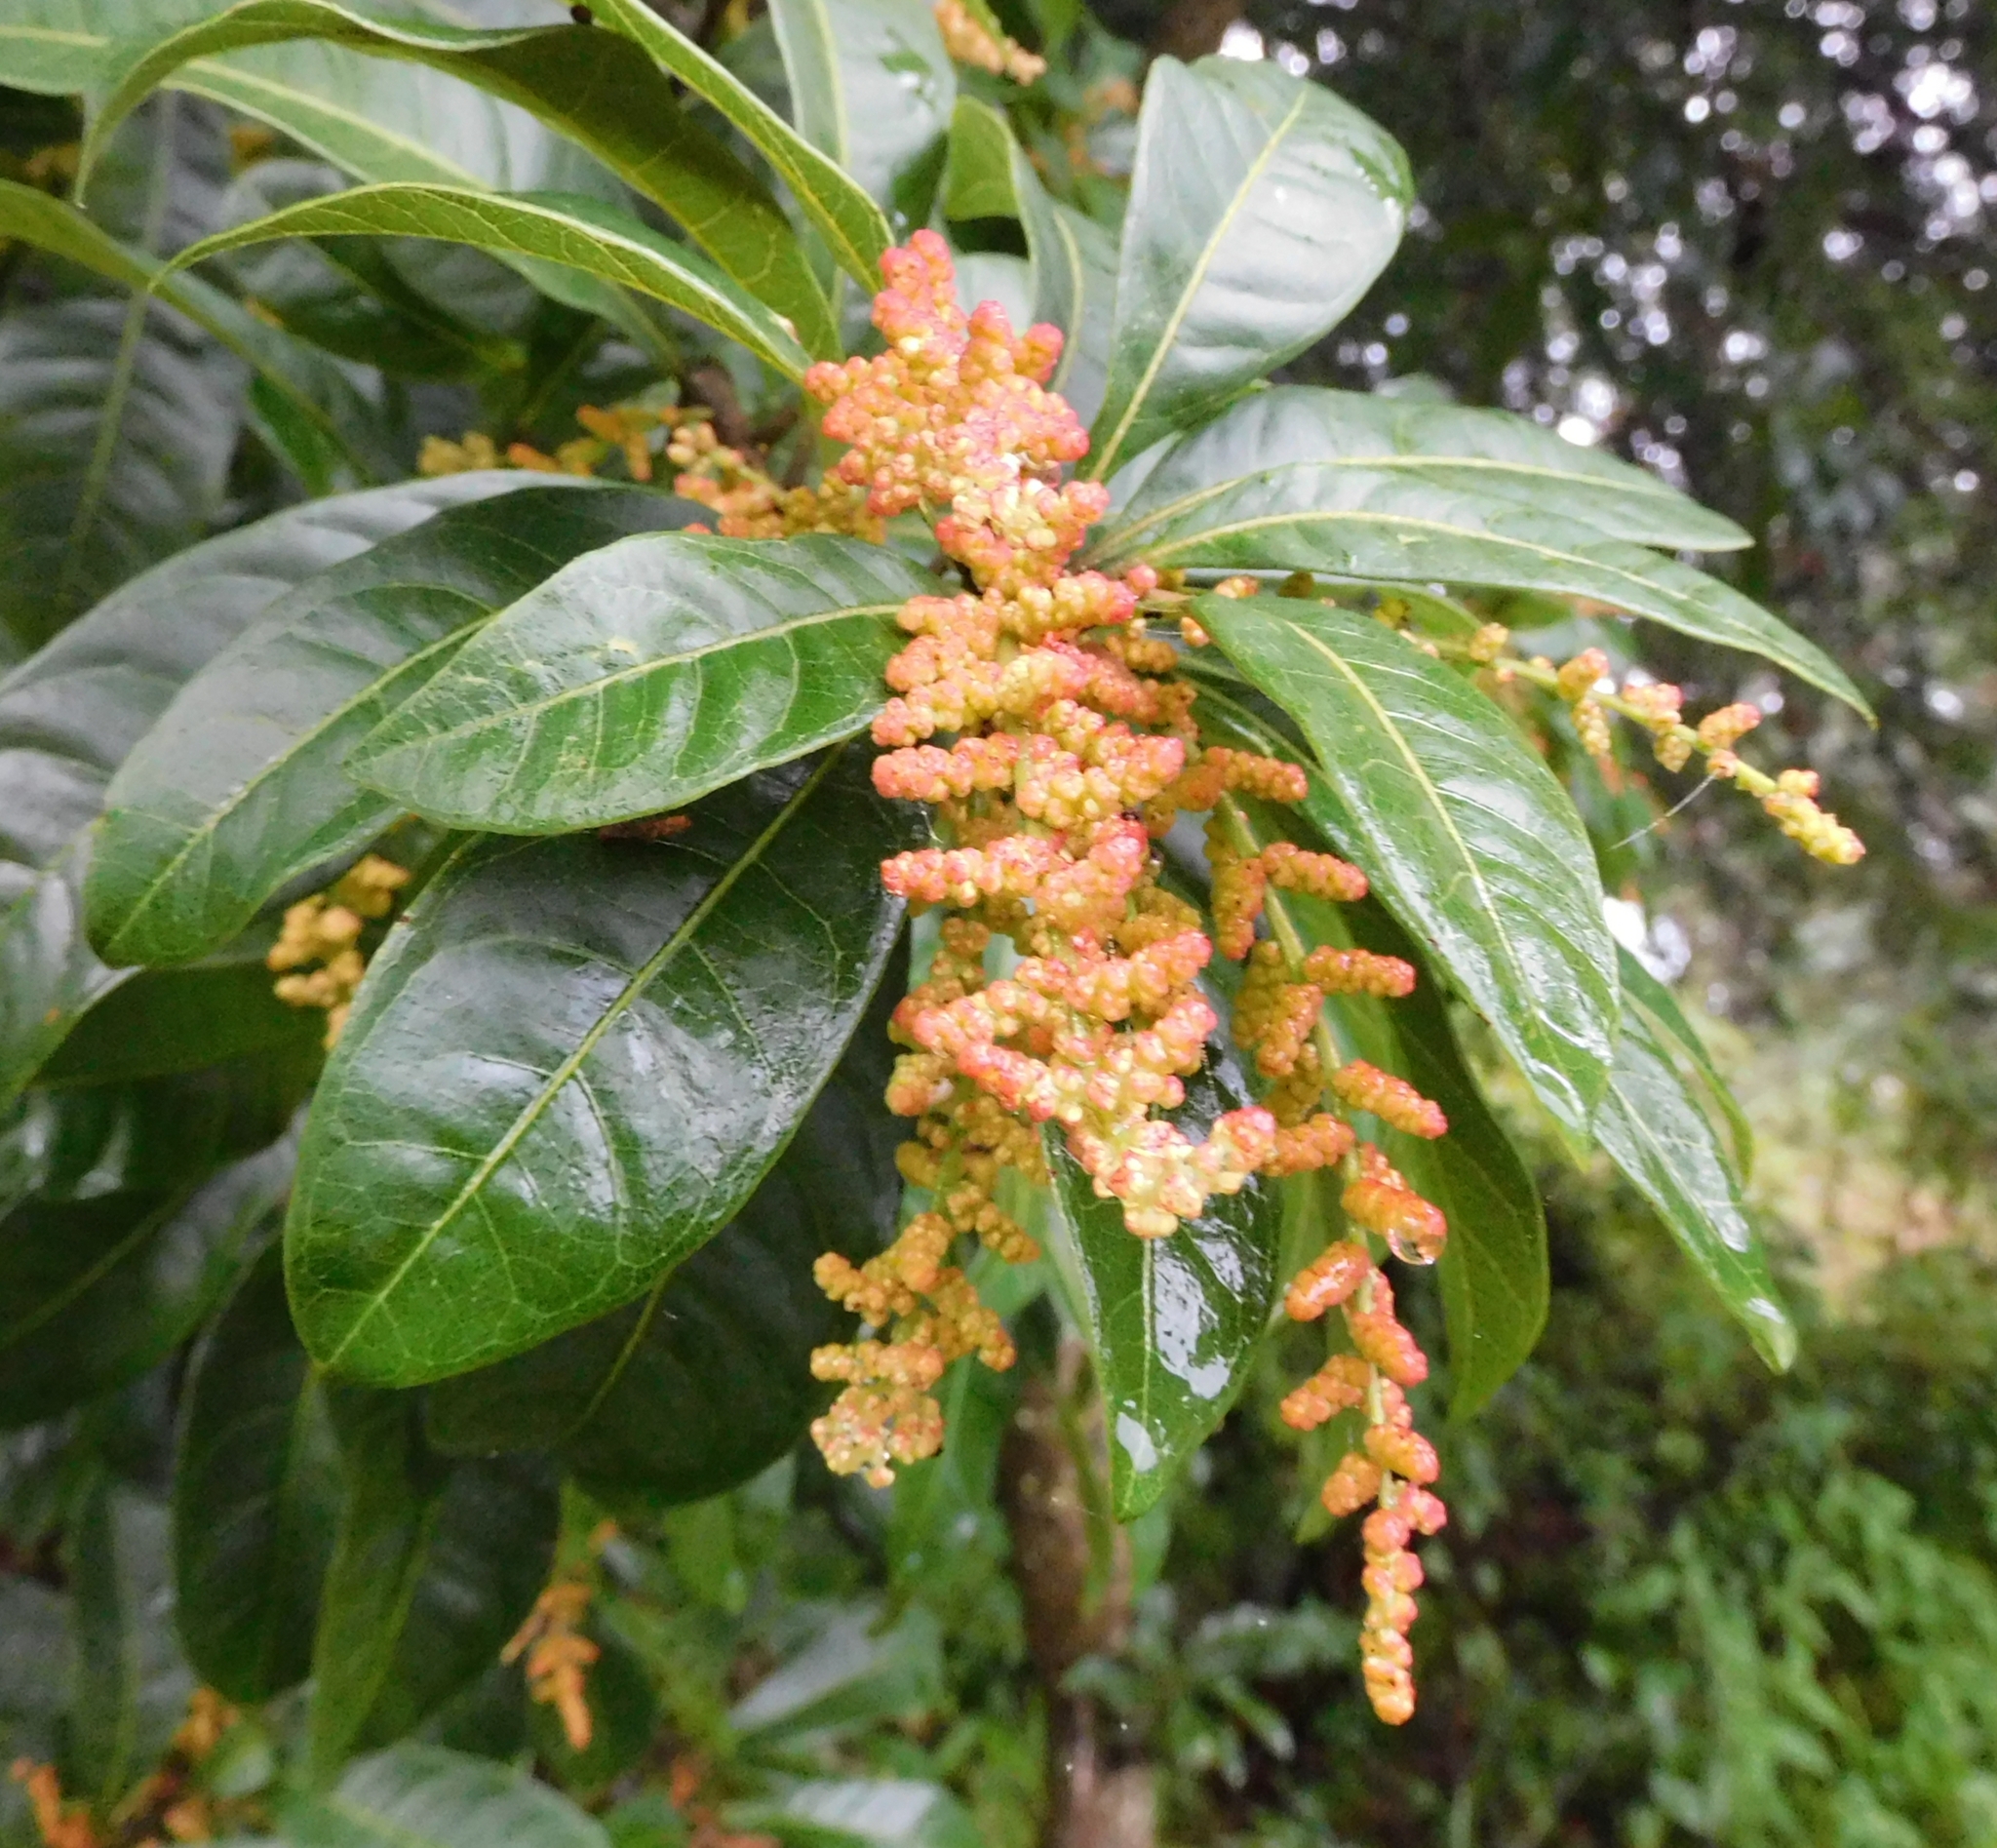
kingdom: Plantae
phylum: Tracheophyta
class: Magnoliopsida
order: Fagales
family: Myricaceae
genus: Morella
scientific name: Morella esculenta
